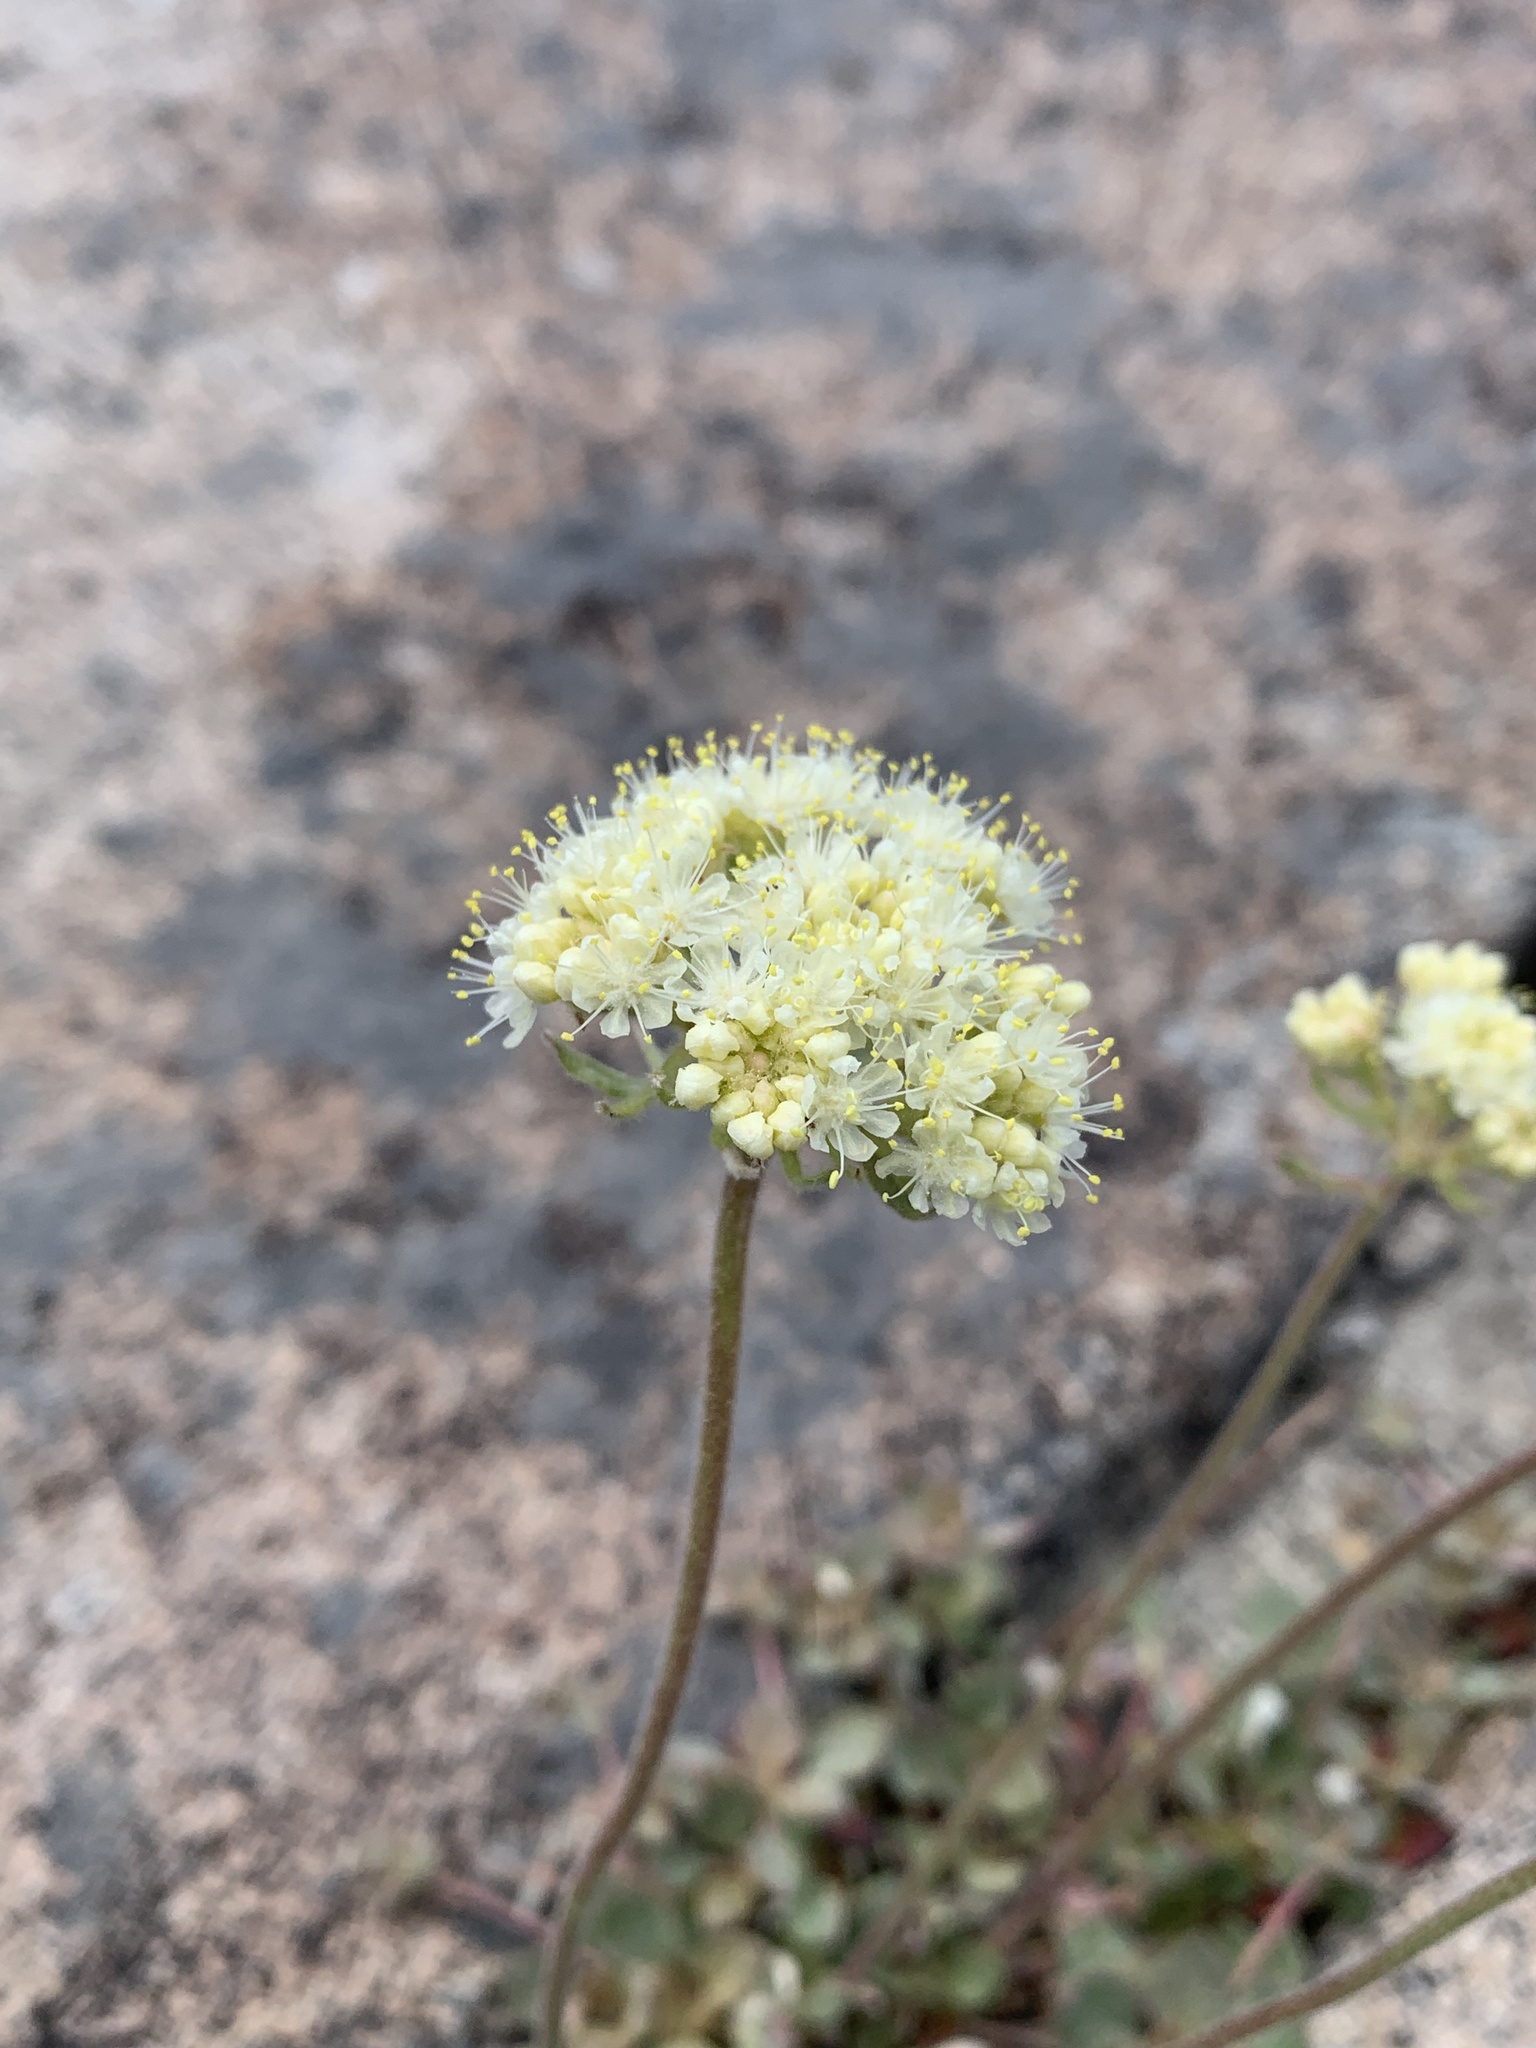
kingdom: Plantae
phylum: Tracheophyta
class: Magnoliopsida
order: Caryophyllales
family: Polygonaceae
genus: Eriogonum
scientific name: Eriogonum ursinum
